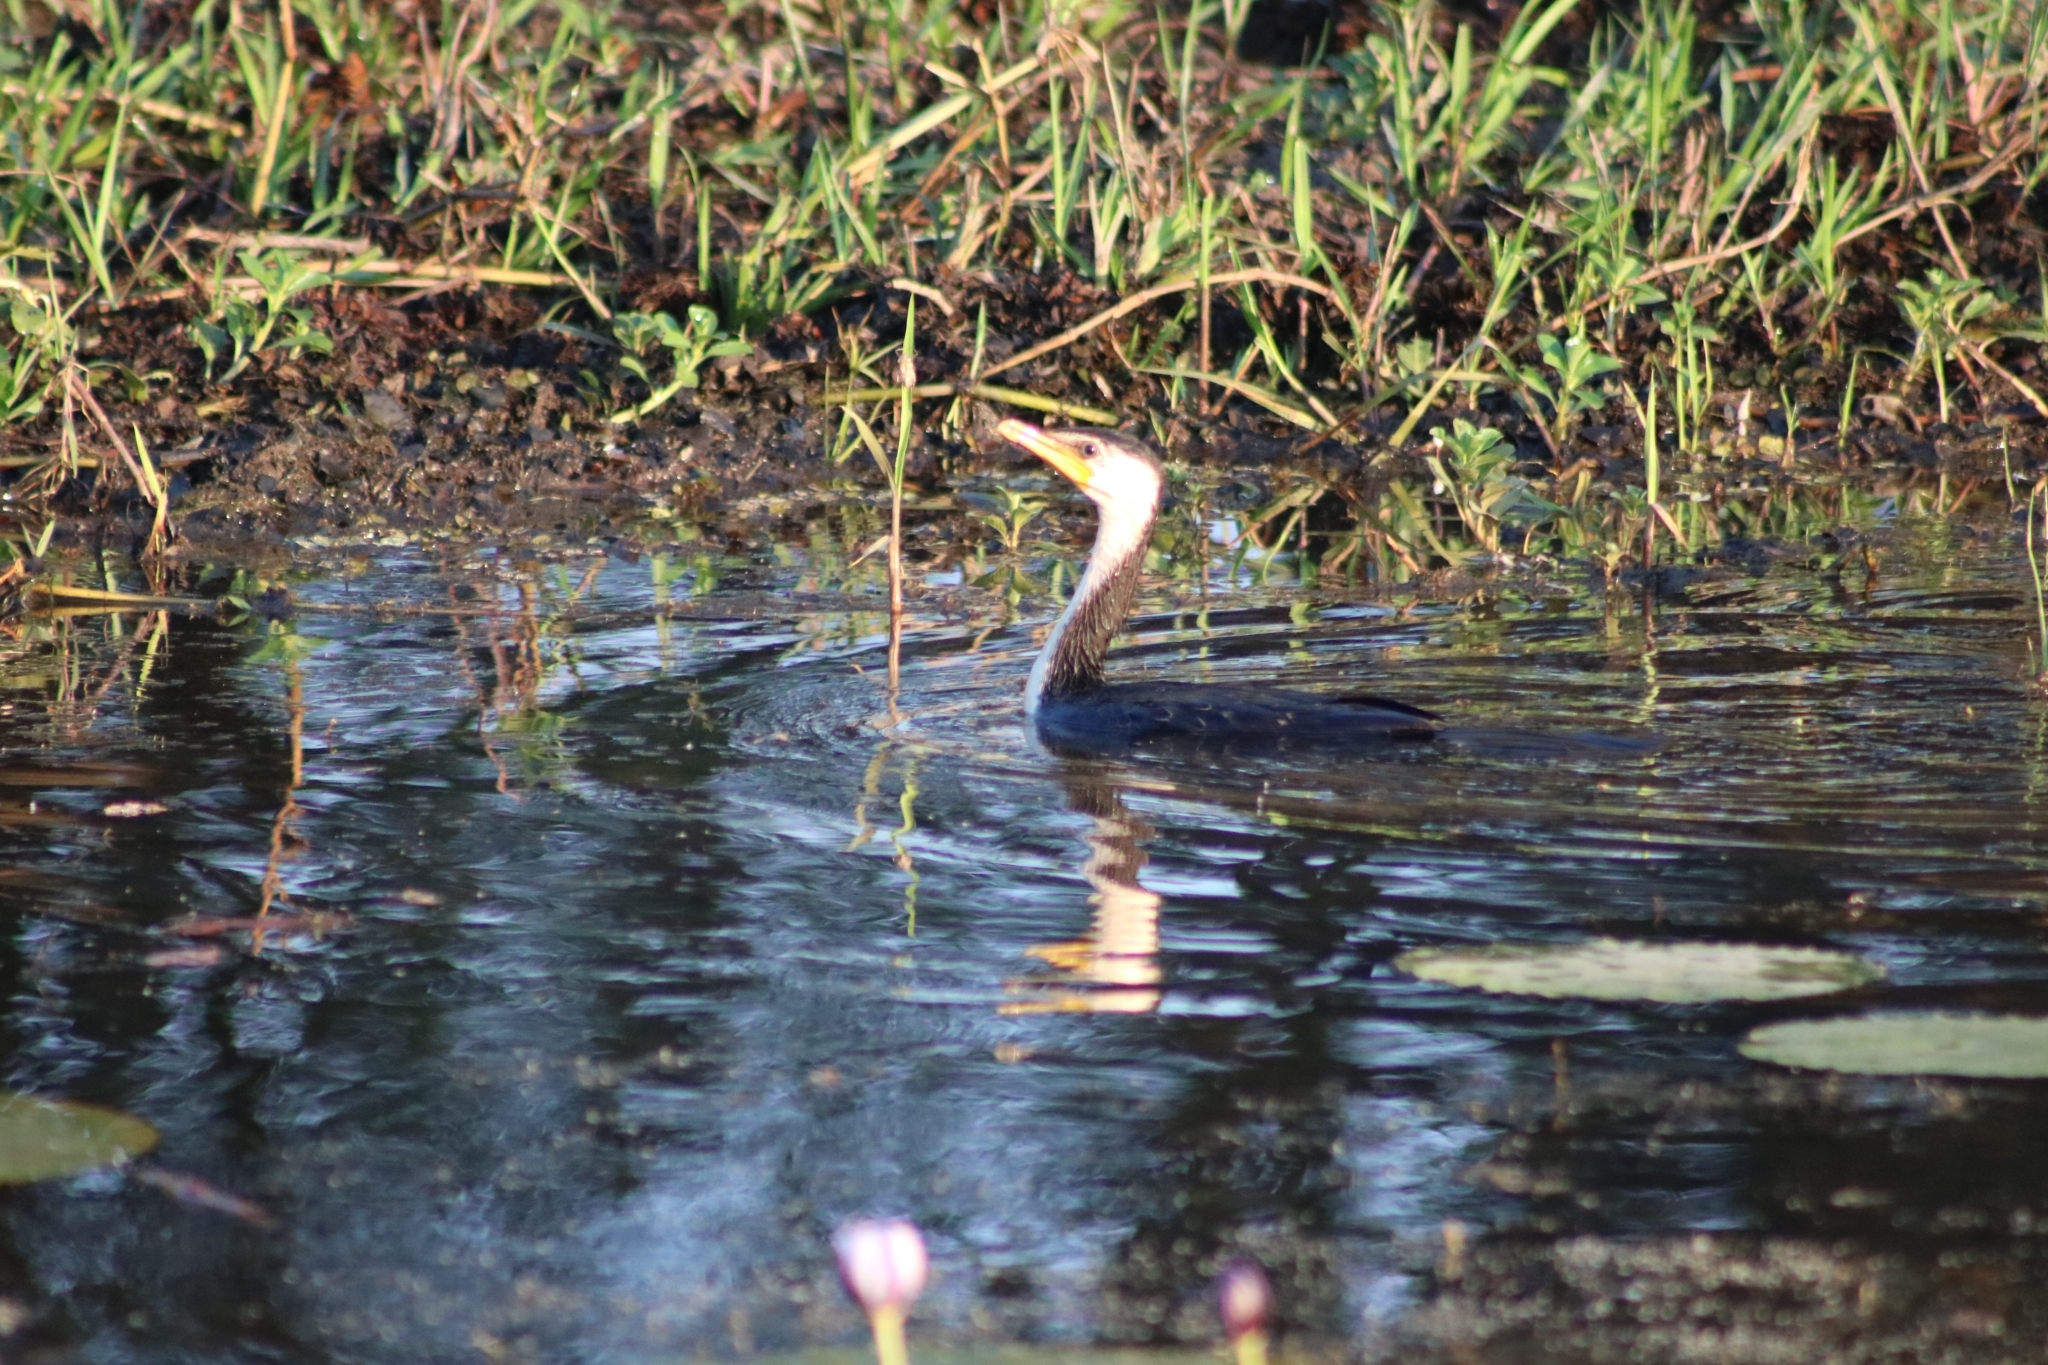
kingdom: Animalia
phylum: Chordata
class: Aves
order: Suliformes
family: Phalacrocoracidae
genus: Microcarbo
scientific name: Microcarbo melanoleucos
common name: Little pied cormorant
